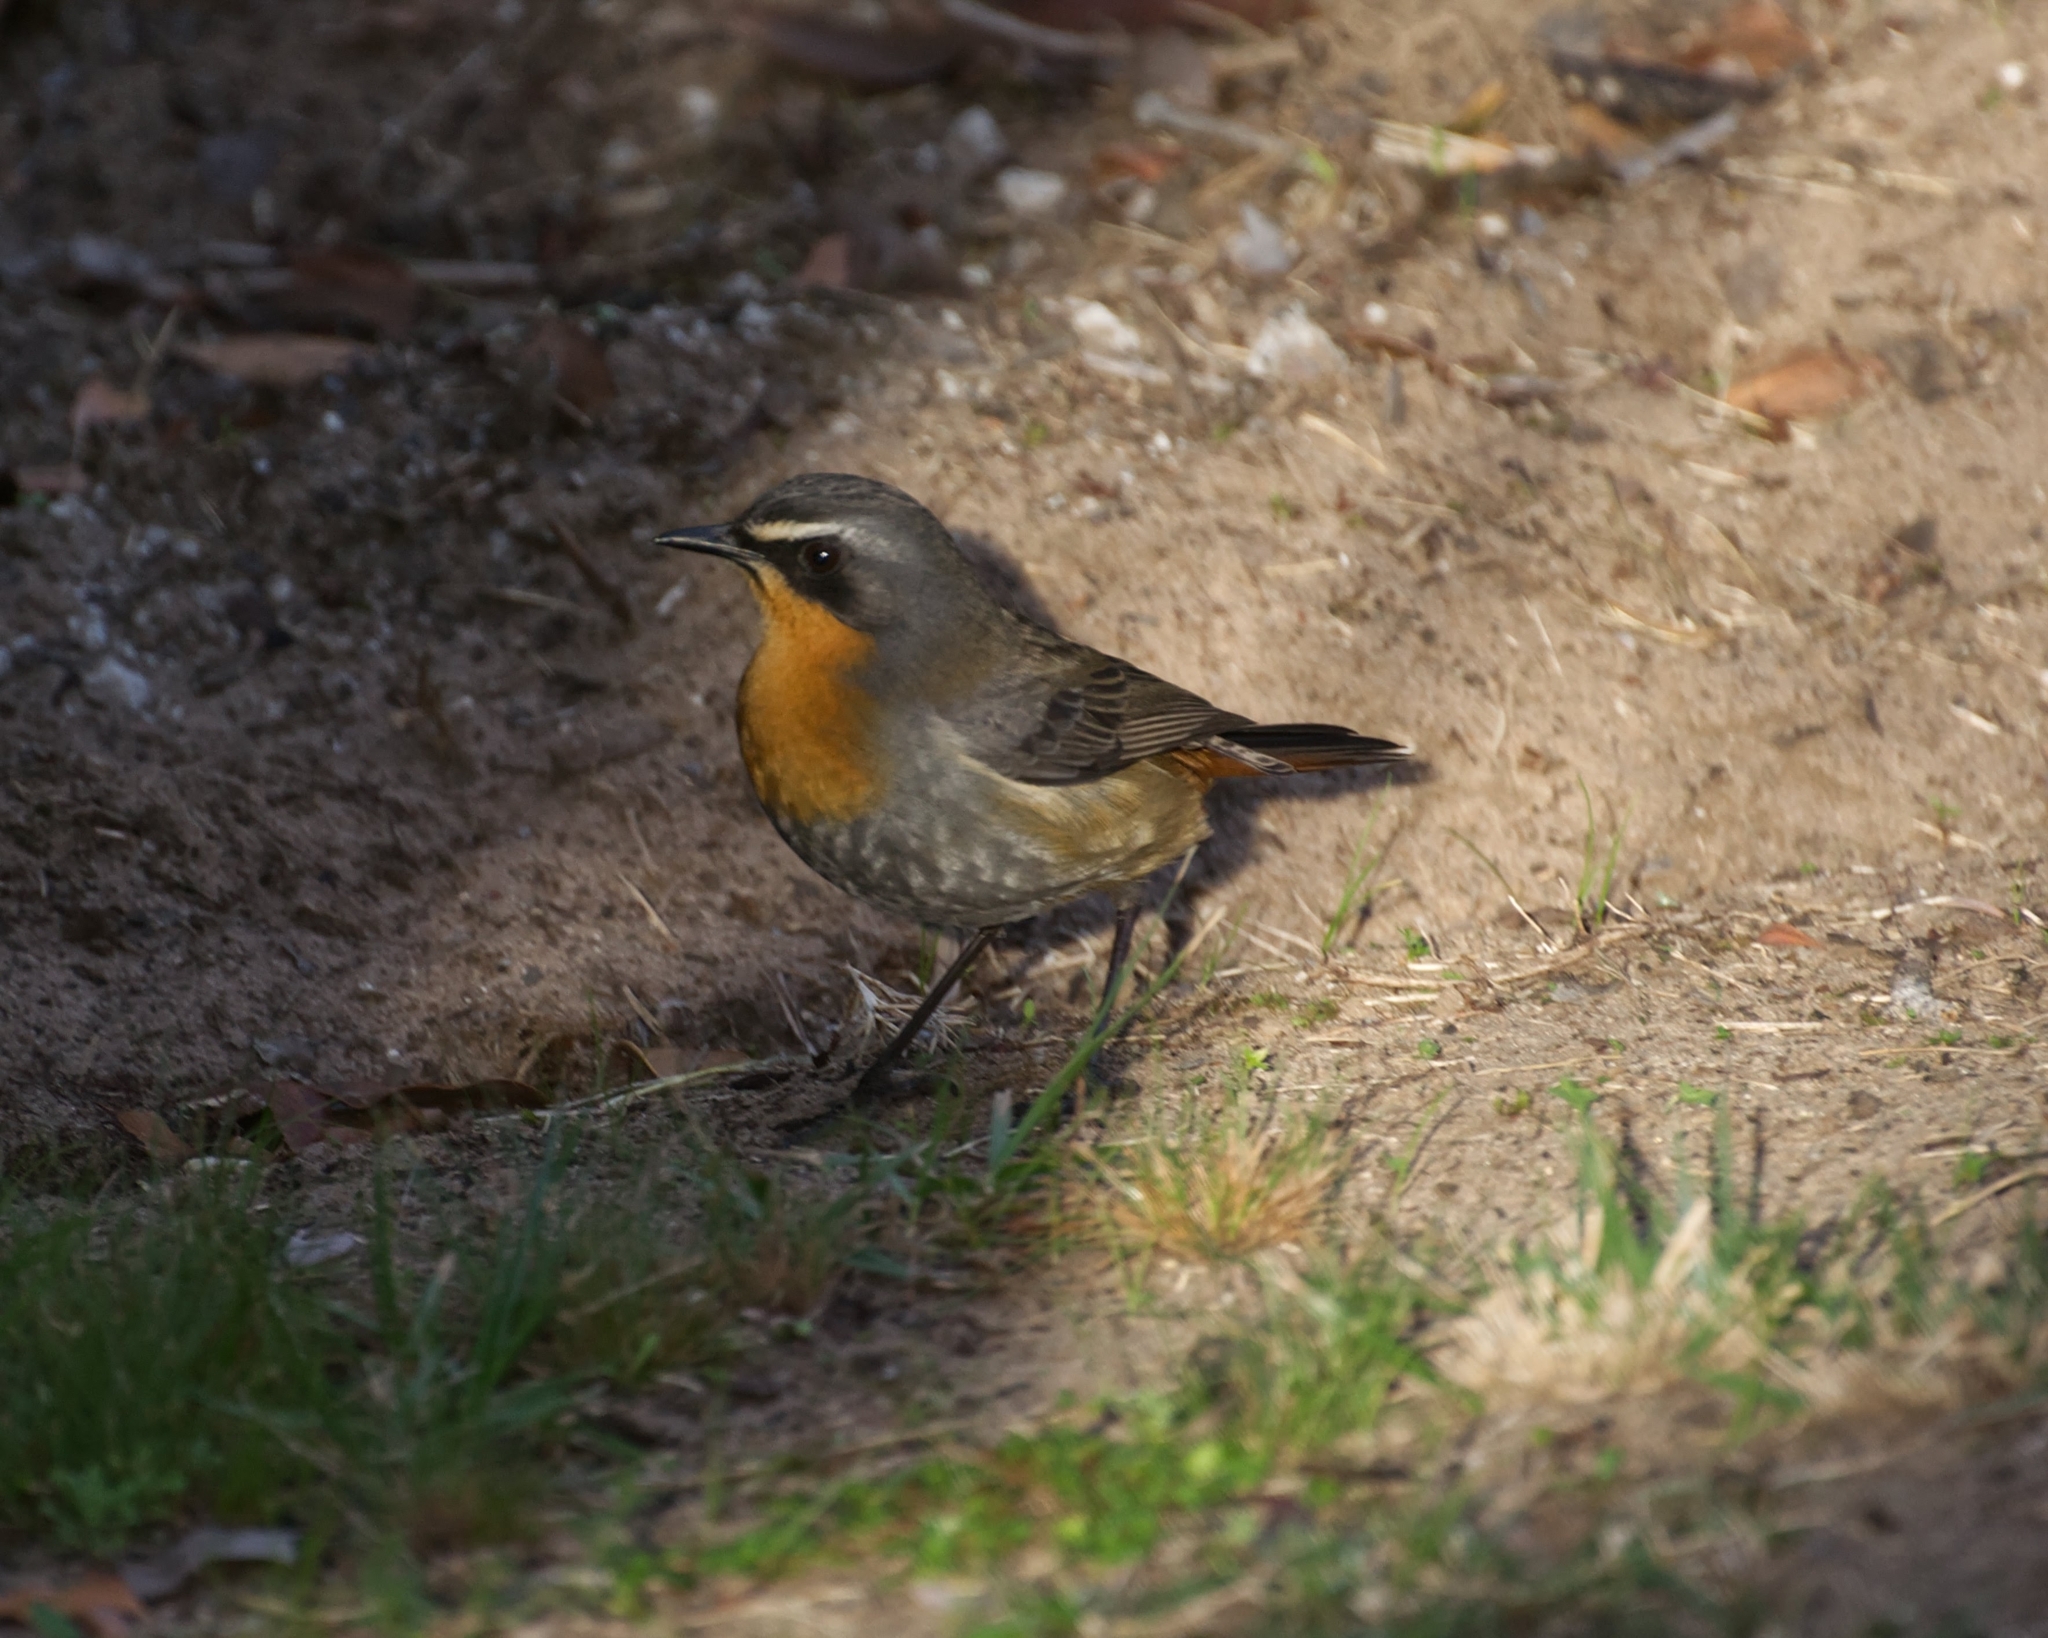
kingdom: Animalia
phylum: Chordata
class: Aves
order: Passeriformes
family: Muscicapidae
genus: Cossypha
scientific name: Cossypha caffra
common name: Cape robin-chat
